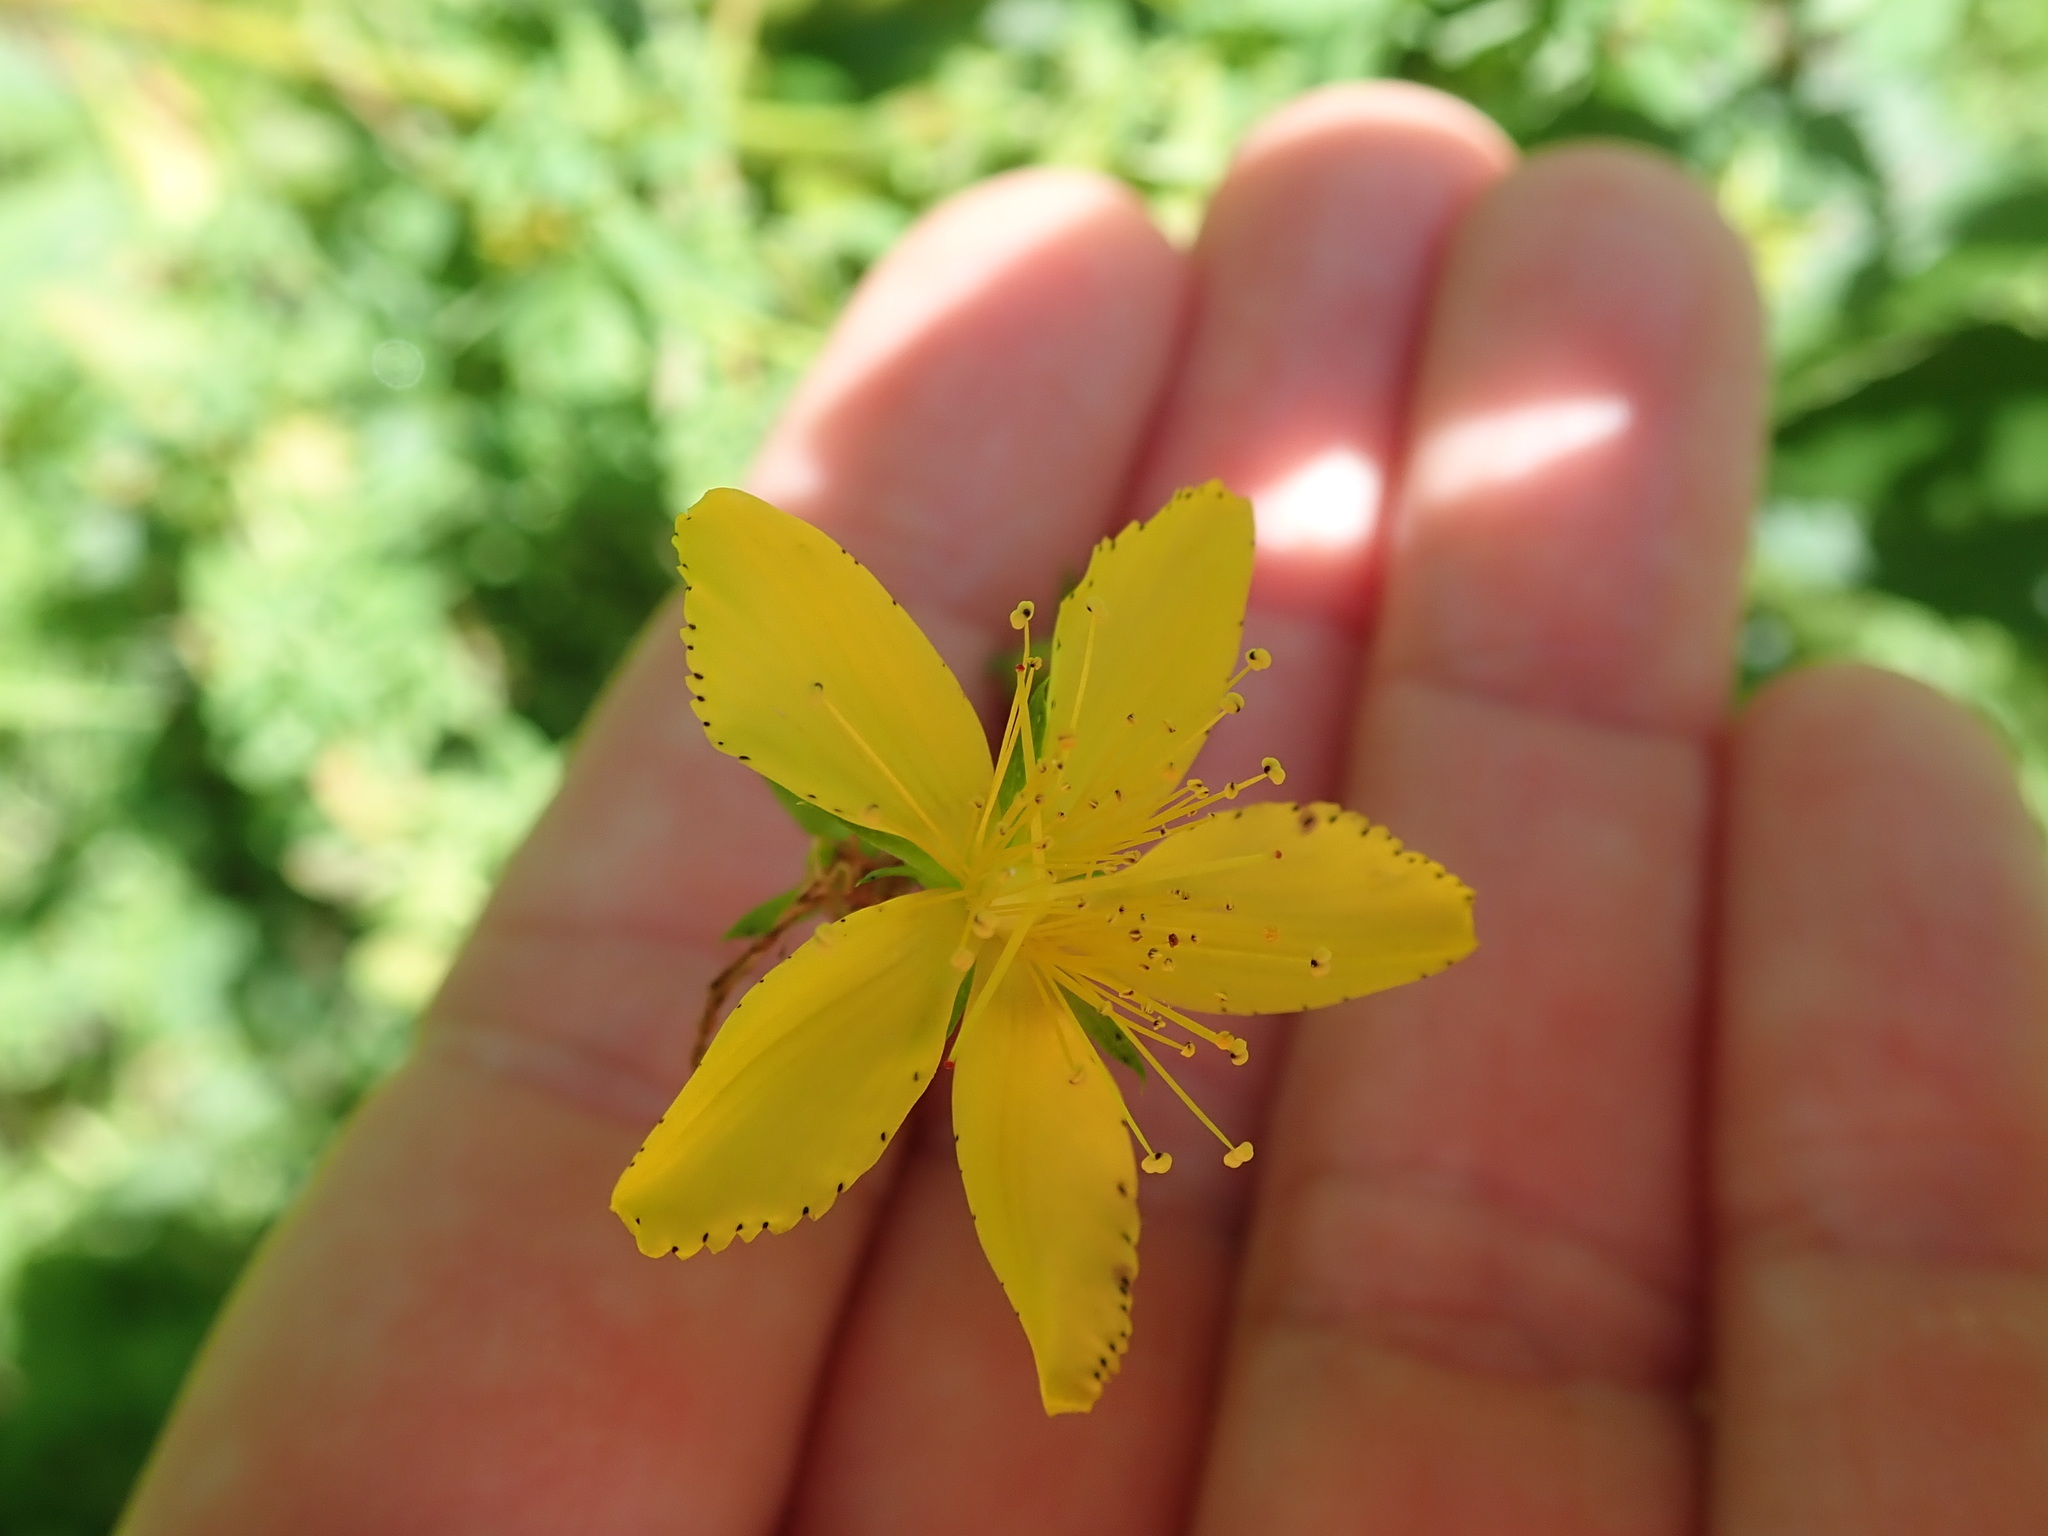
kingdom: Plantae
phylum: Tracheophyta
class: Magnoliopsida
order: Malpighiales
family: Hypericaceae
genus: Hypericum
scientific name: Hypericum perforatum
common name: Common st. johnswort
